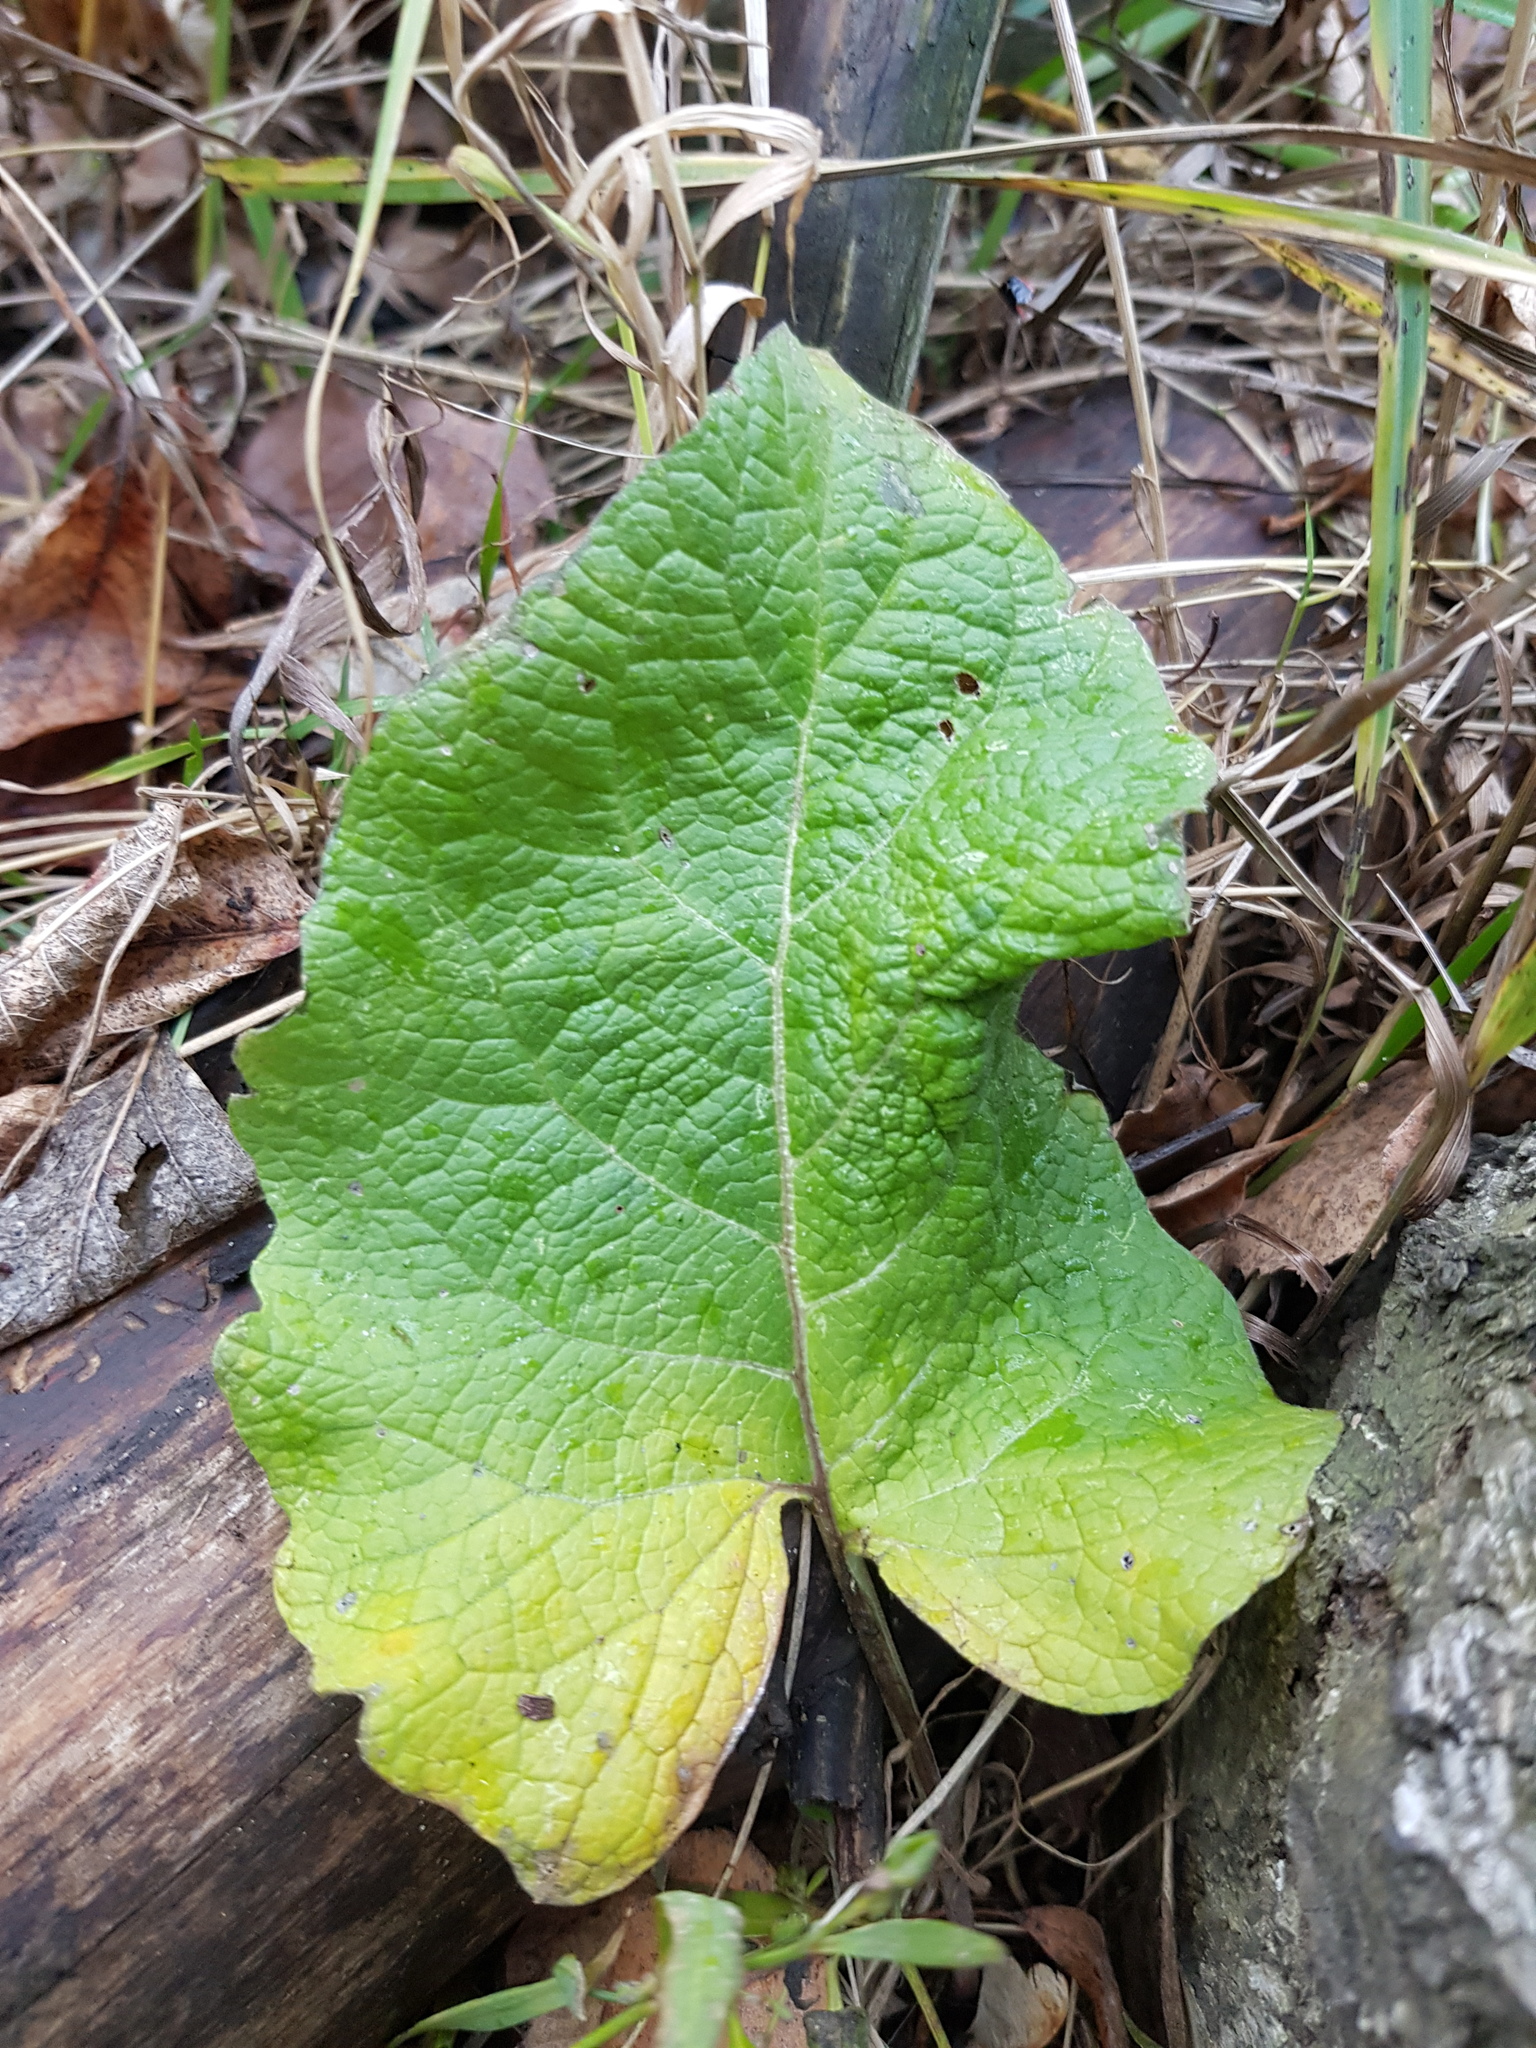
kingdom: Plantae
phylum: Tracheophyta
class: Magnoliopsida
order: Asterales
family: Asteraceae
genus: Arctium
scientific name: Arctium
